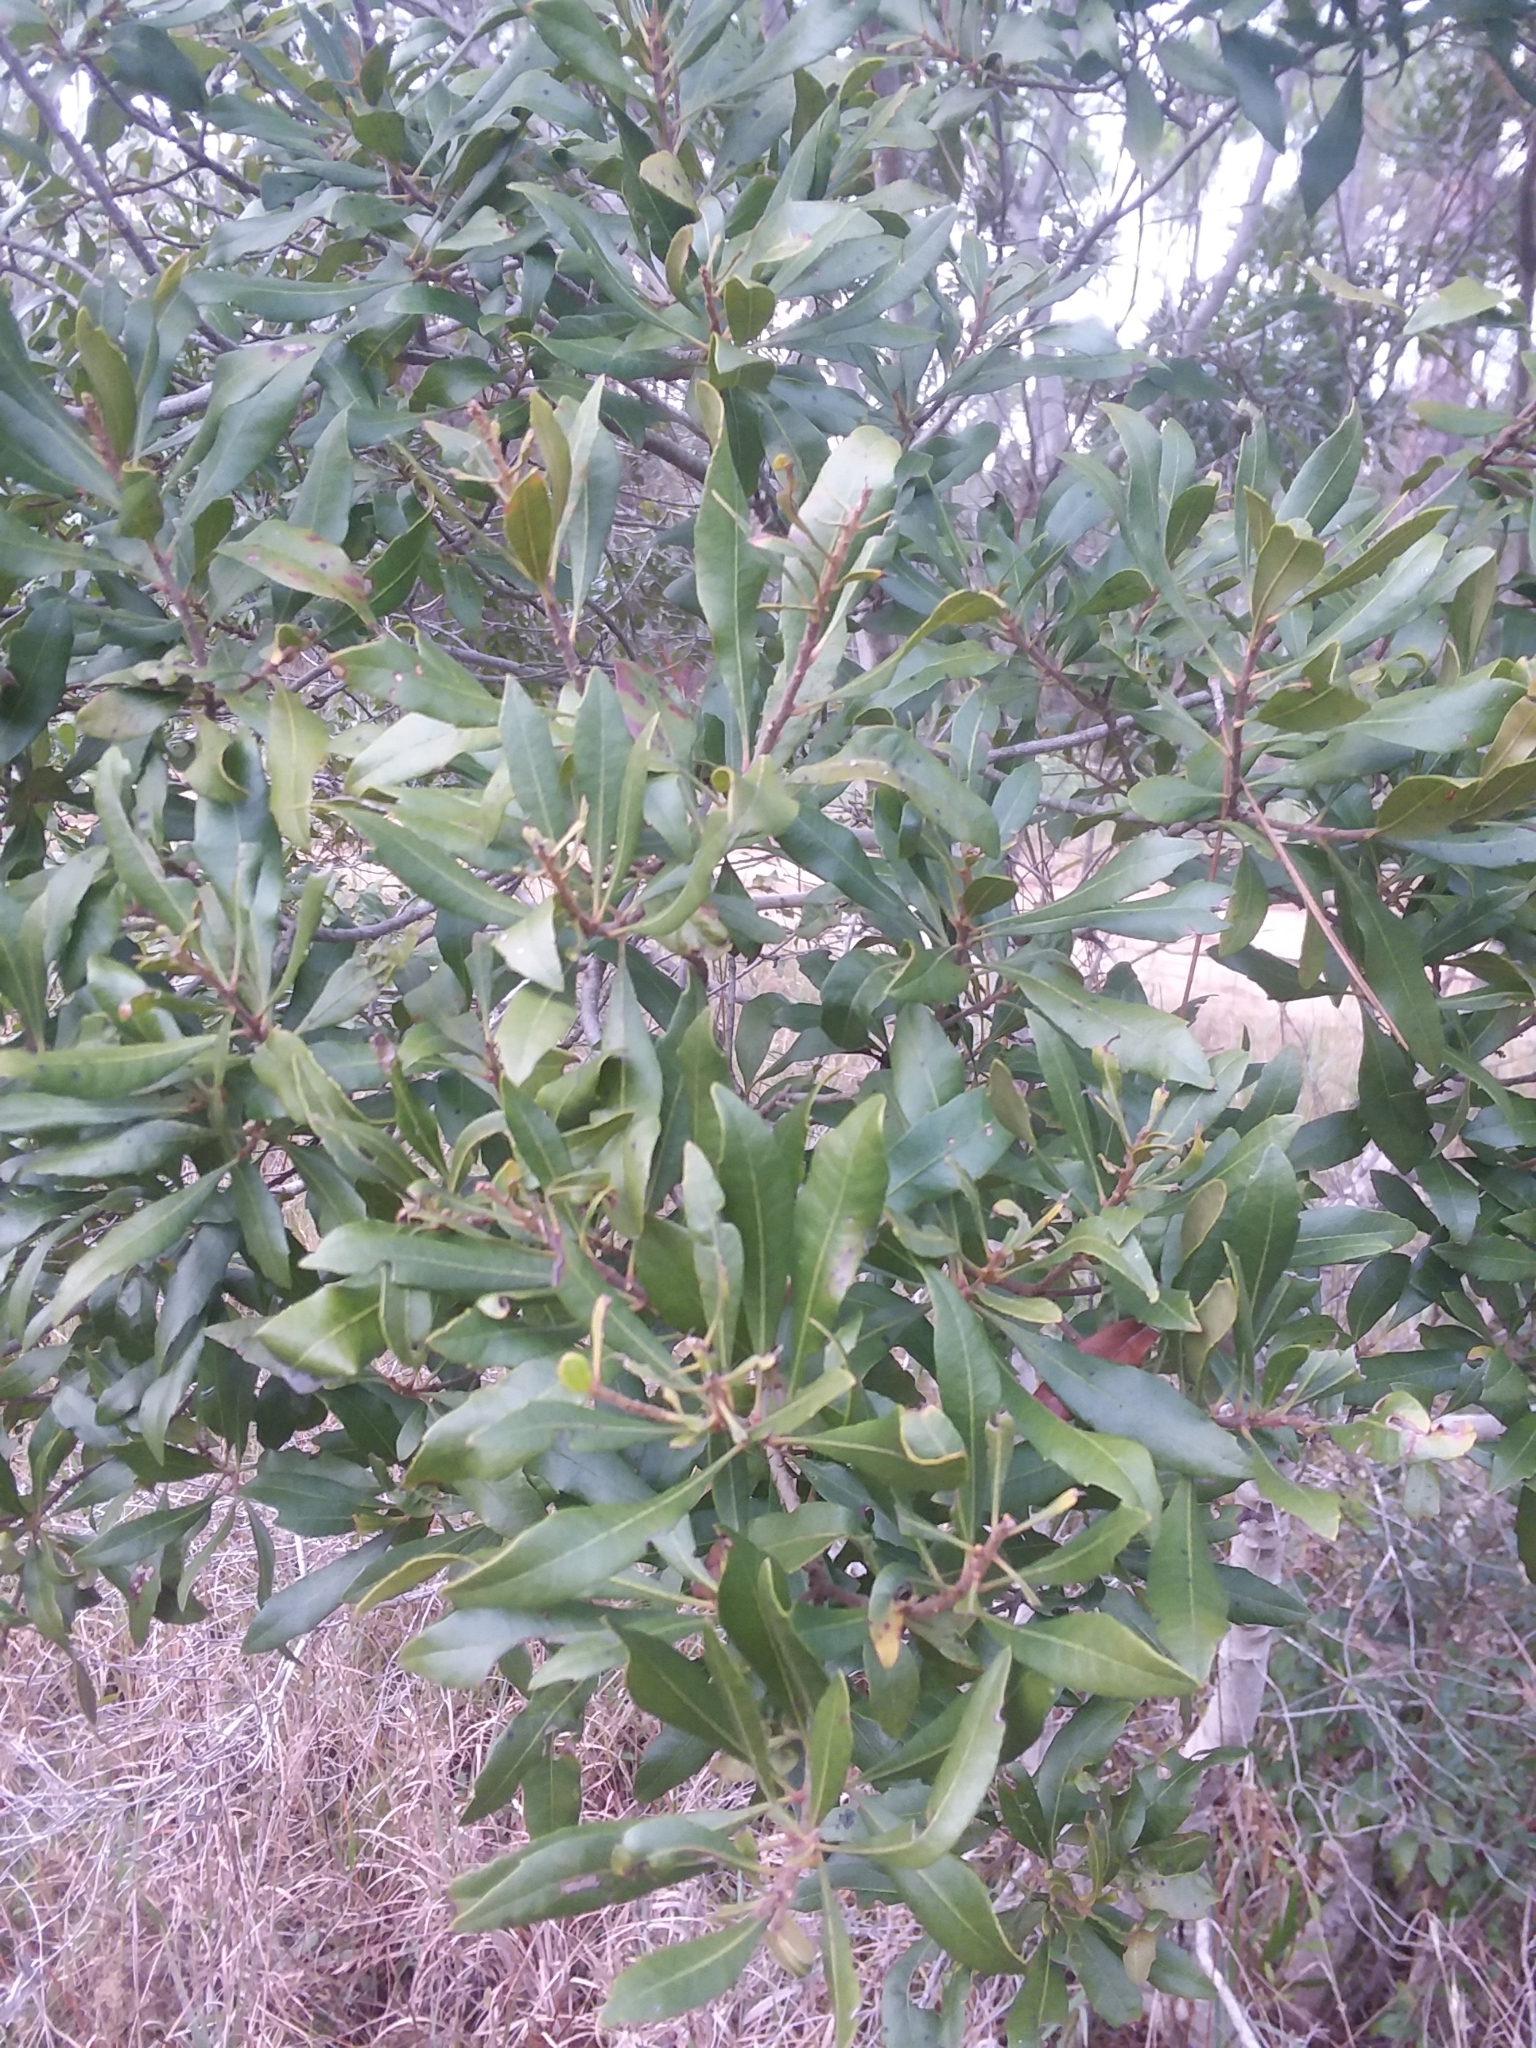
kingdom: Plantae
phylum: Tracheophyta
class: Magnoliopsida
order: Fagales
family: Myricaceae
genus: Morella
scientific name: Morella cerifera
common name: Wax myrtle
